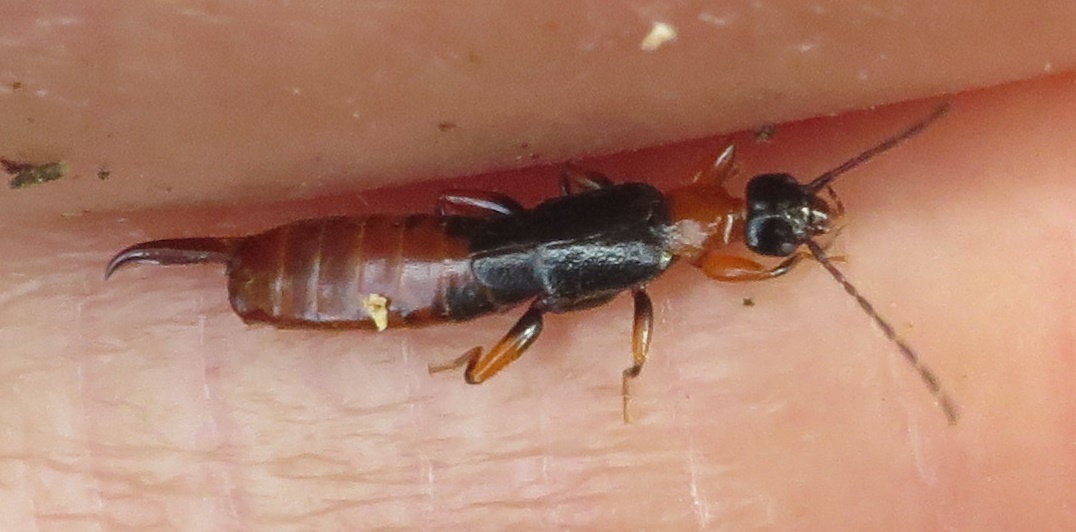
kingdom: Animalia
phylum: Arthropoda
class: Insecta
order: Dermaptera
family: Spongiphoridae
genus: Paraspania
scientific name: Paraspania brunneri
